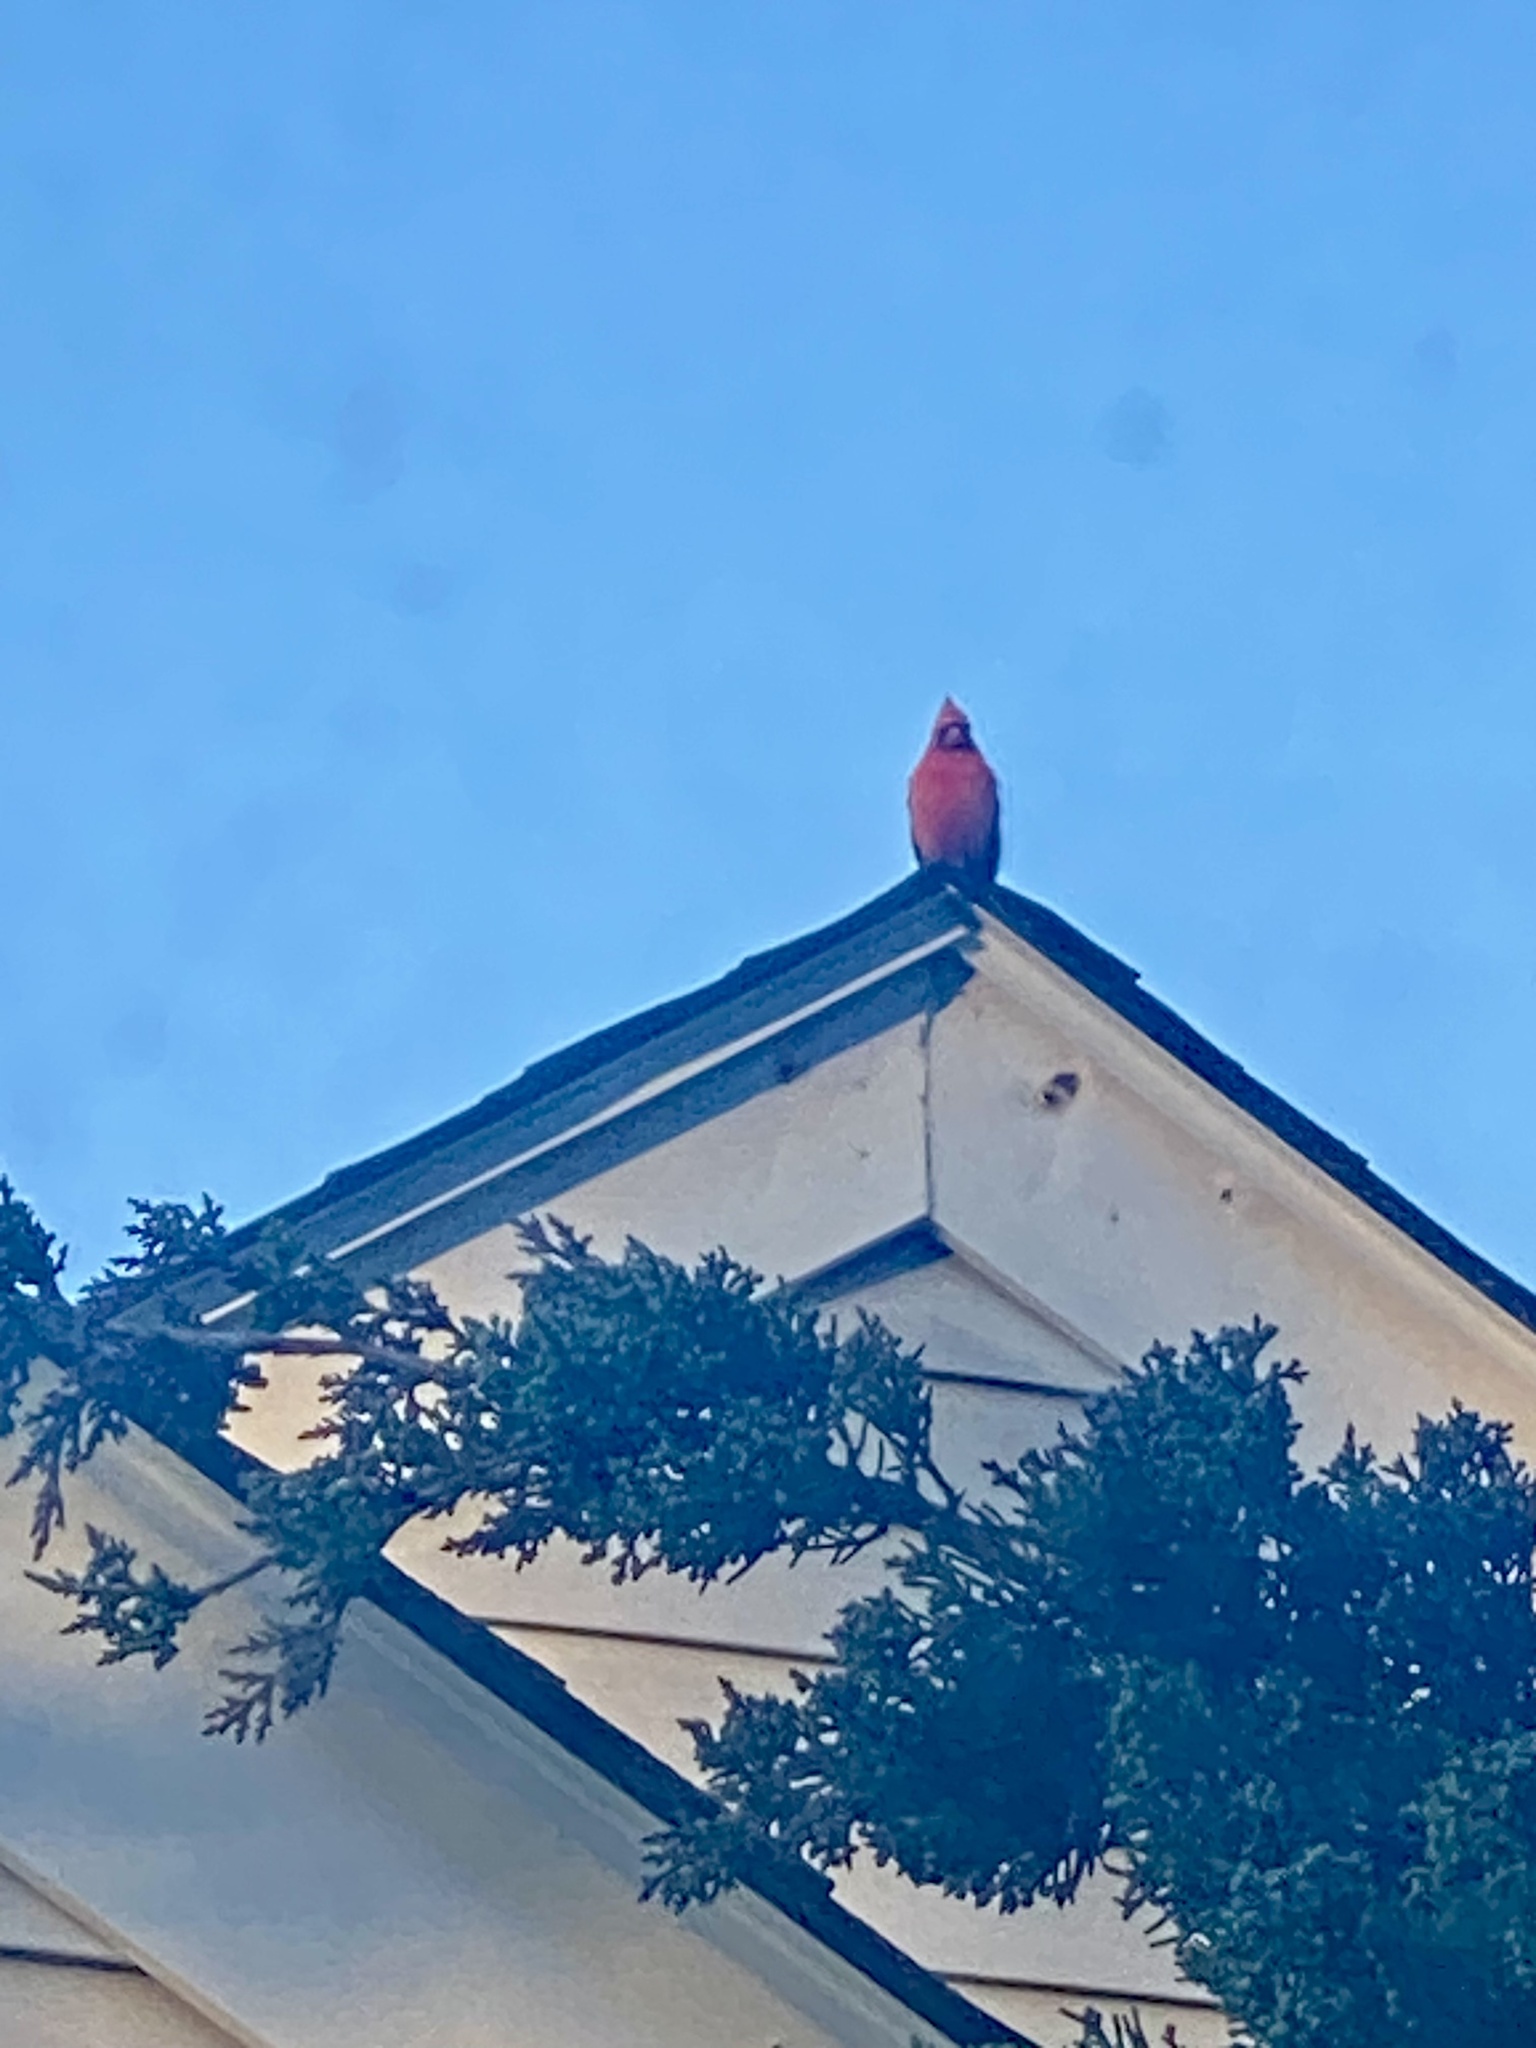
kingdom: Animalia
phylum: Chordata
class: Aves
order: Passeriformes
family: Cardinalidae
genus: Cardinalis
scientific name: Cardinalis cardinalis
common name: Northern cardinal
